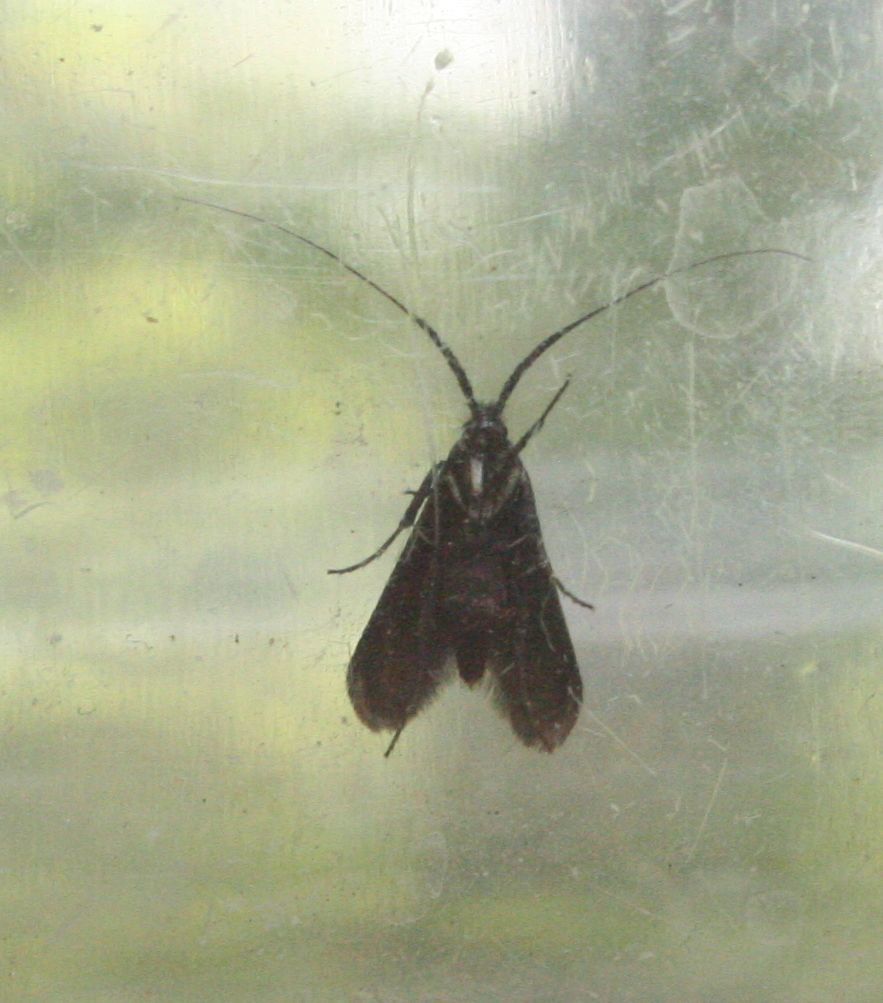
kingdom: Animalia
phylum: Arthropoda
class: Insecta
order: Lepidoptera
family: Adelidae
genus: Adela
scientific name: Adela viridella
